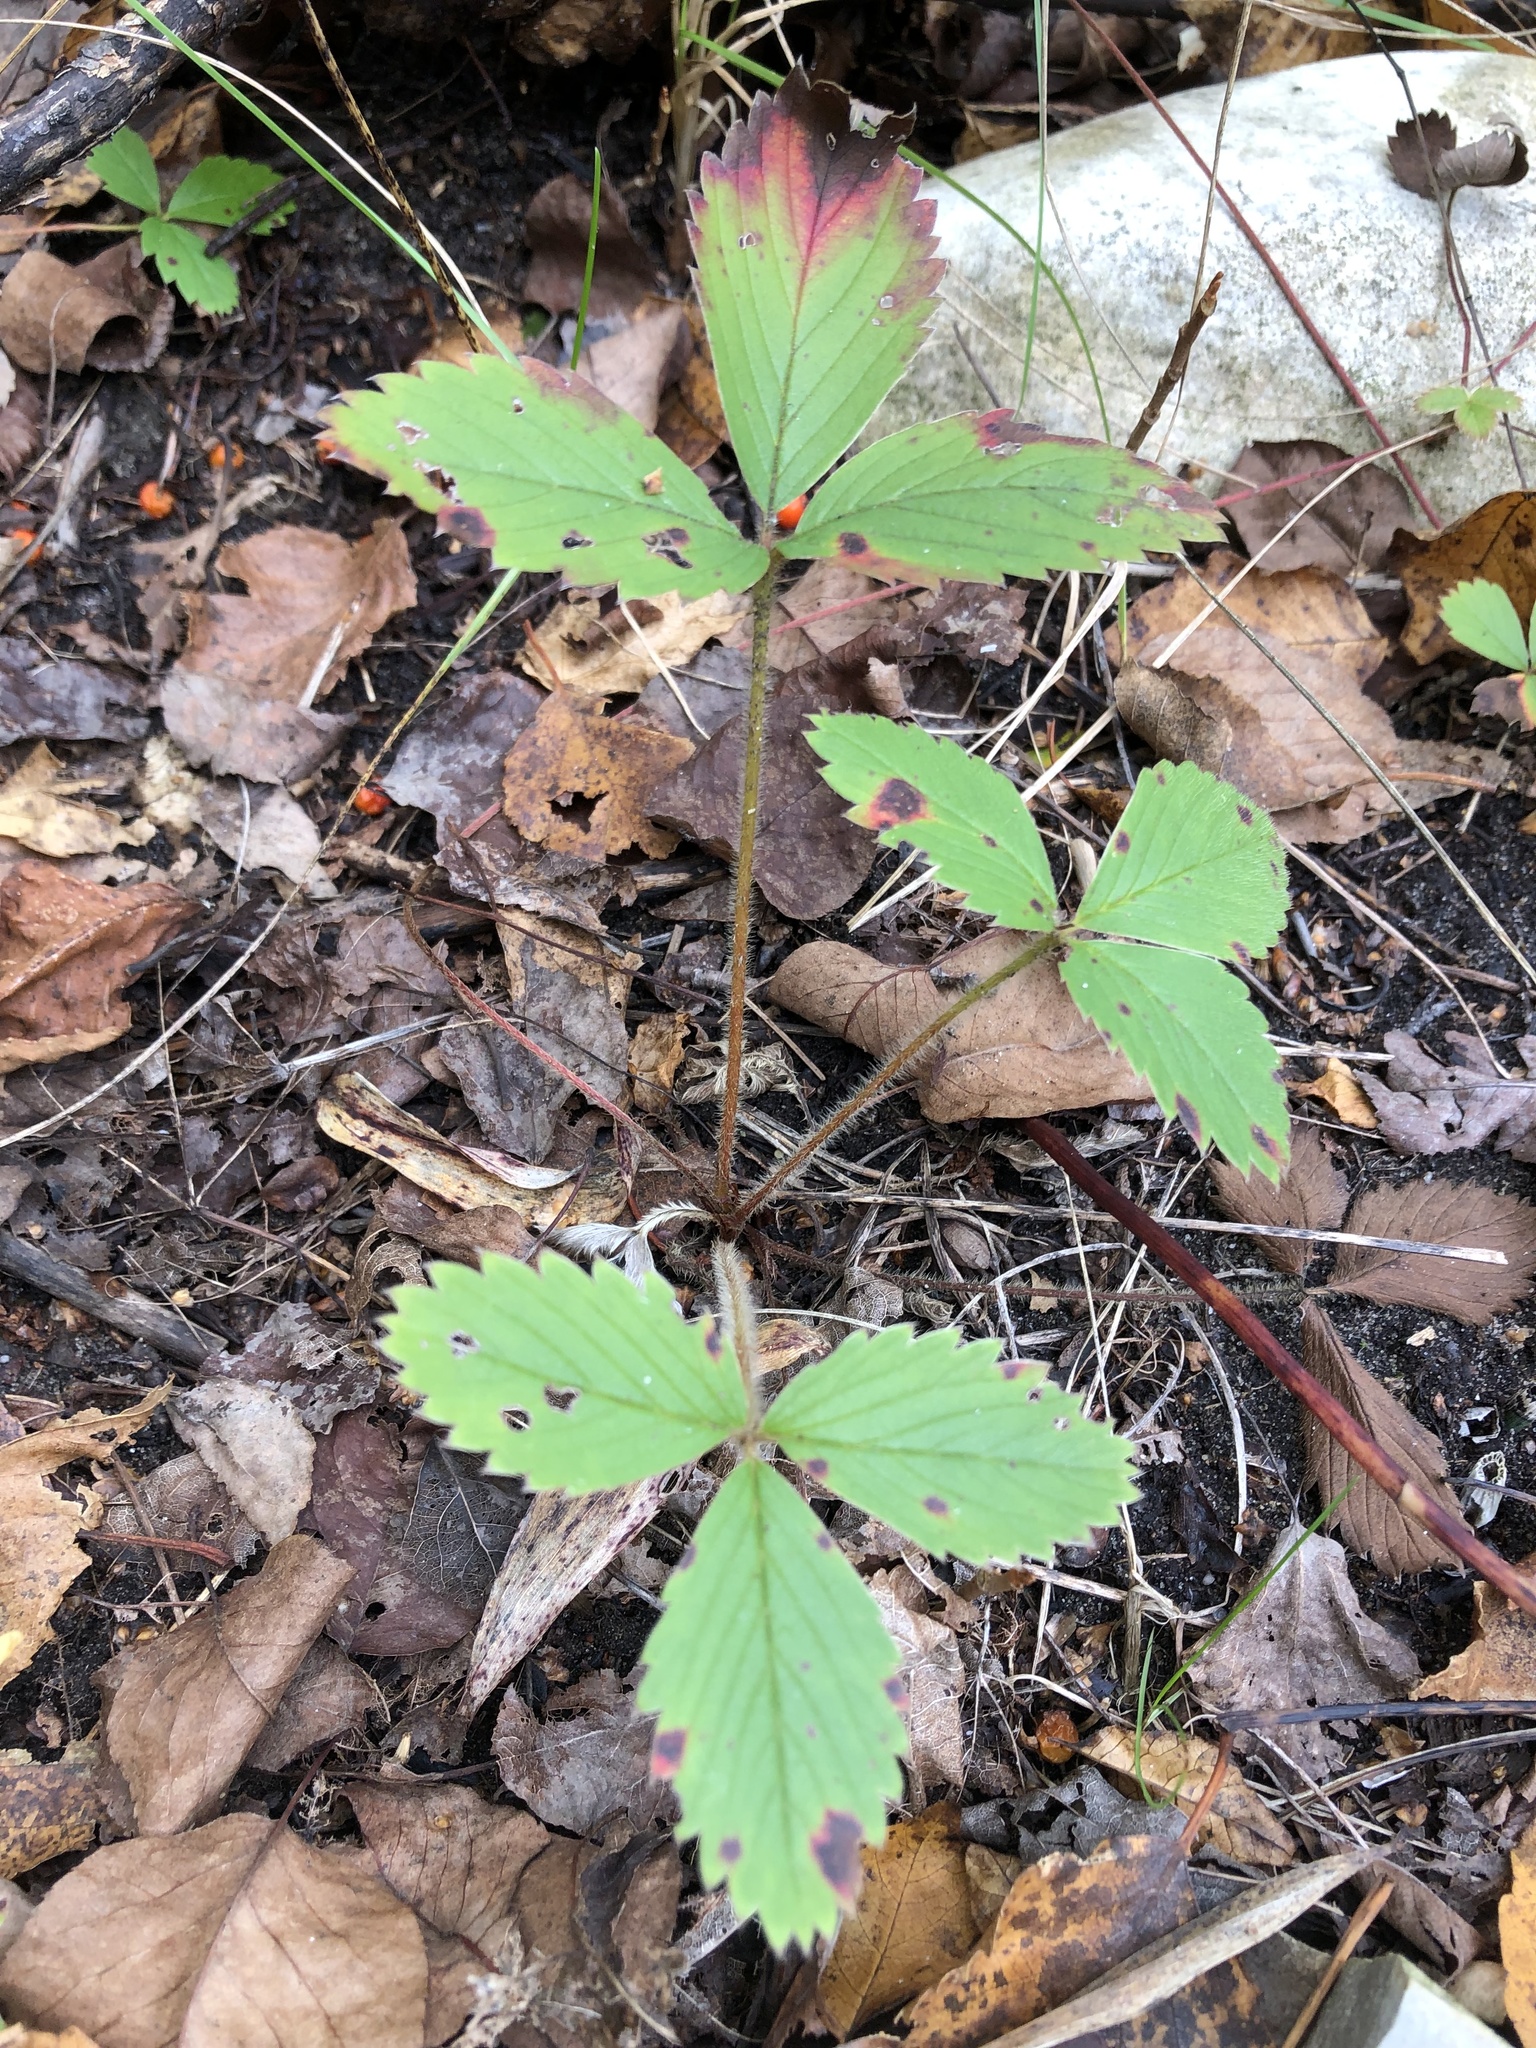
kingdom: Plantae
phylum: Tracheophyta
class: Magnoliopsida
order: Rosales
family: Rosaceae
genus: Fragaria
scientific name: Fragaria virginiana
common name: Thickleaved wild strawberry
